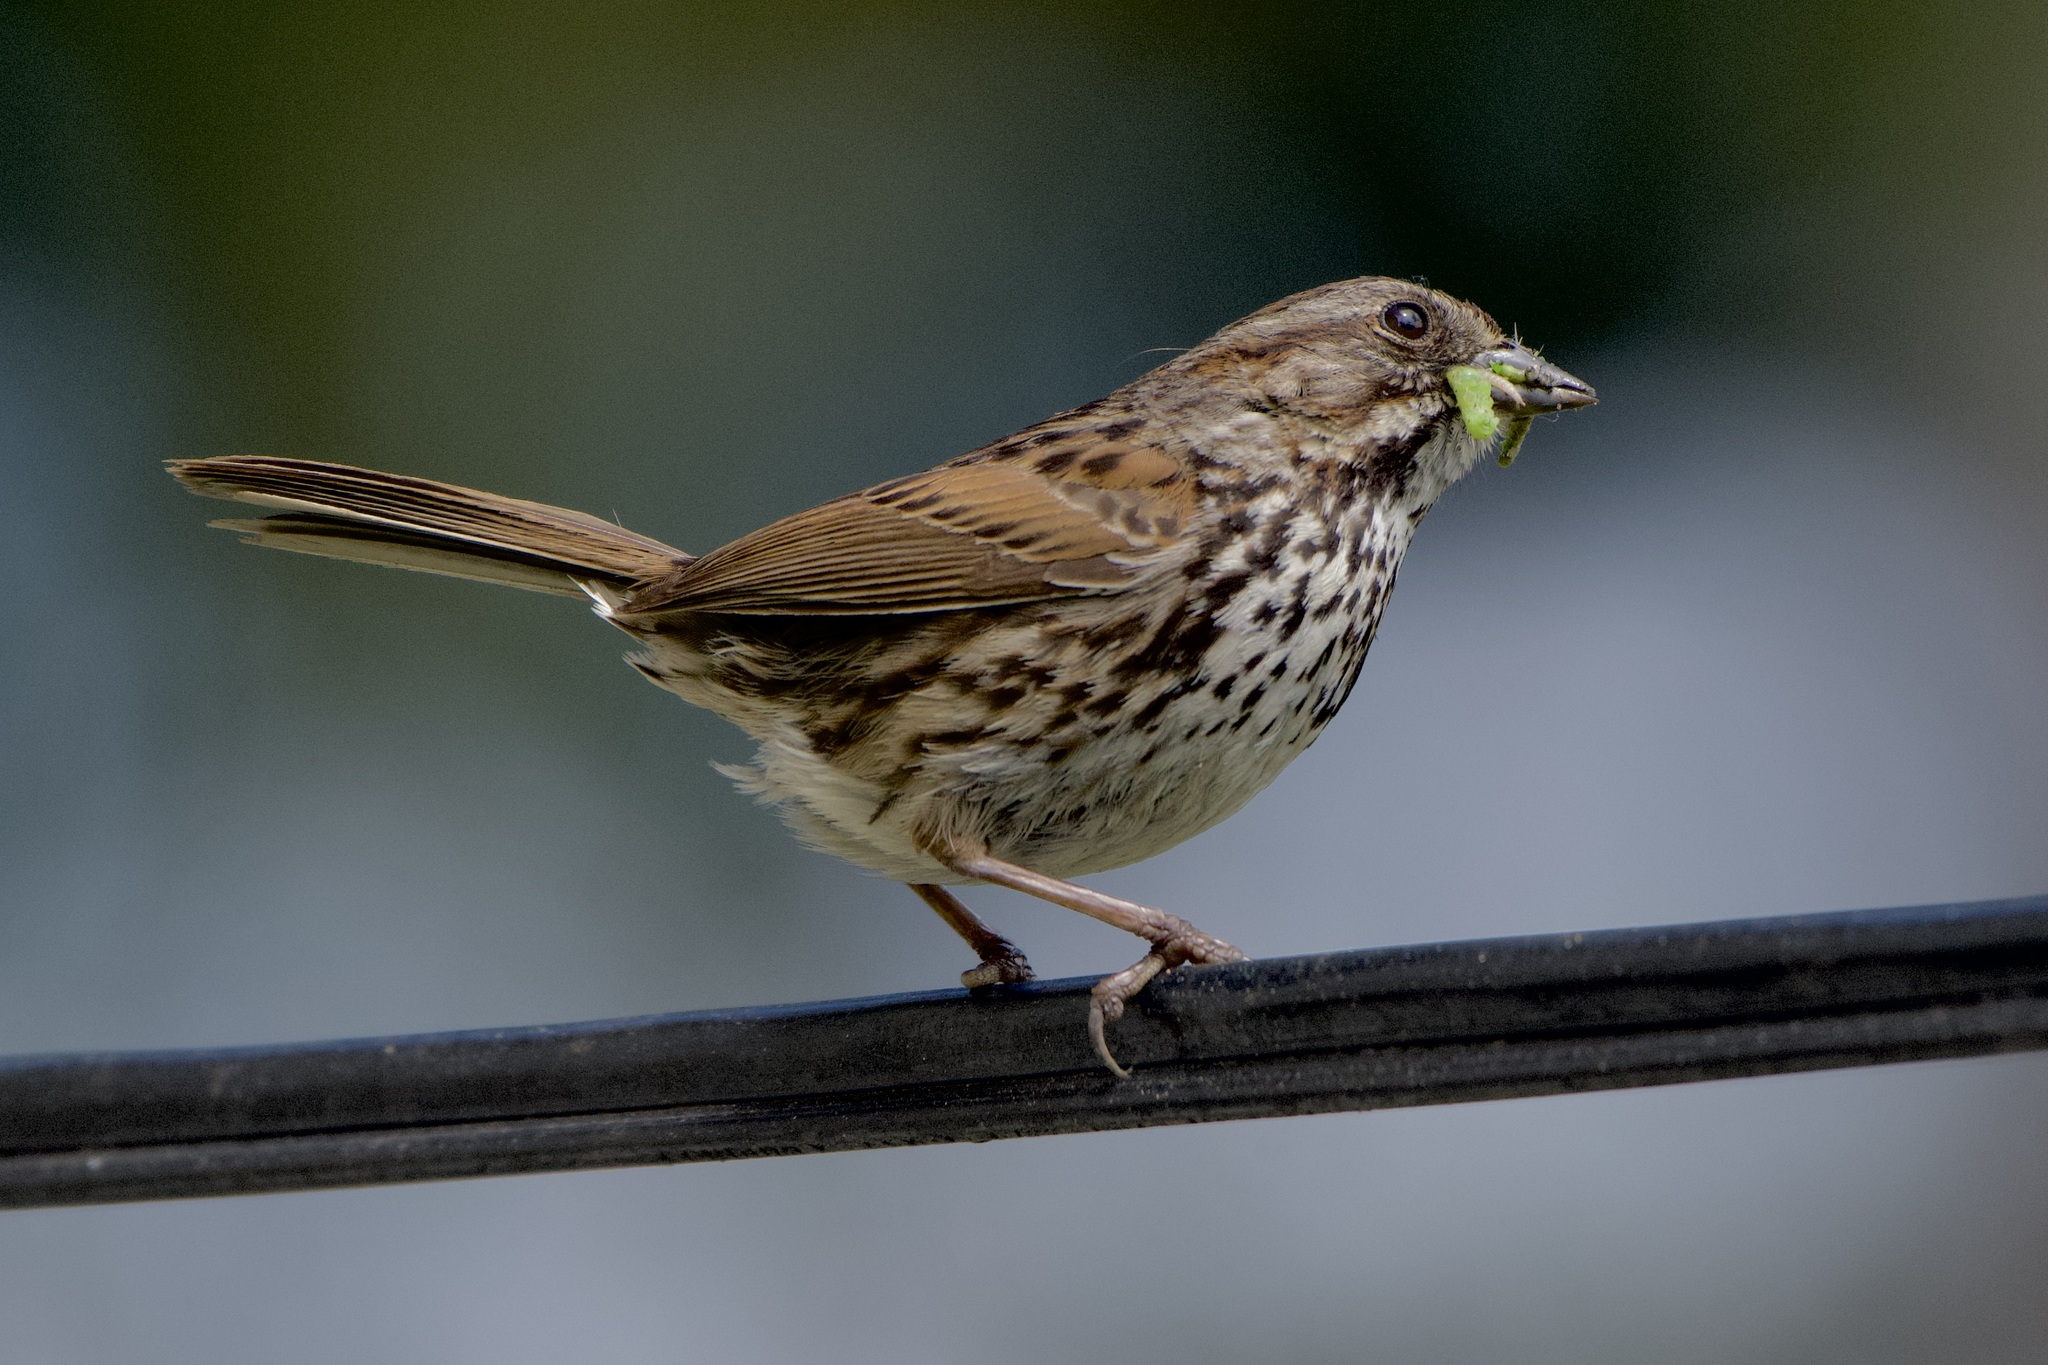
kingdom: Animalia
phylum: Chordata
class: Aves
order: Passeriformes
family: Passerellidae
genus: Melospiza
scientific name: Melospiza melodia
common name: Song sparrow
